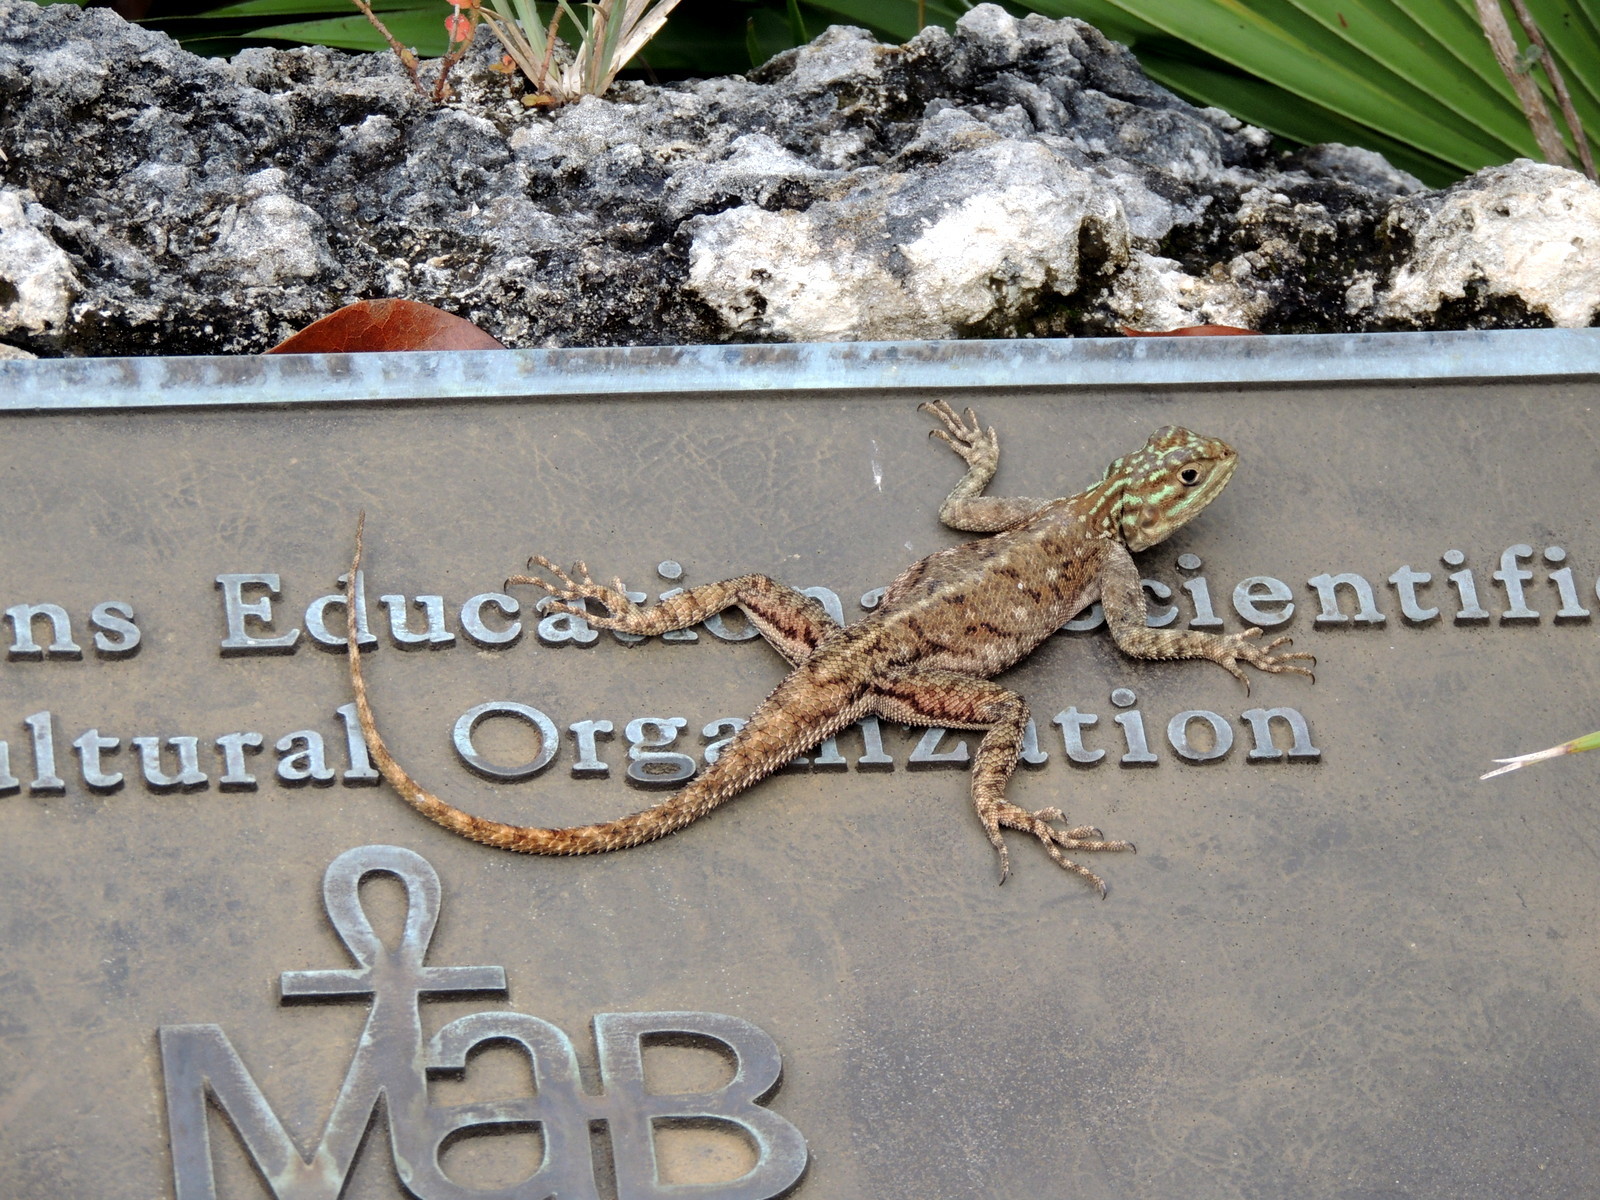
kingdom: Animalia
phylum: Chordata
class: Squamata
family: Agamidae
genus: Agama
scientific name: Agama picticauda
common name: Red-headed agama
